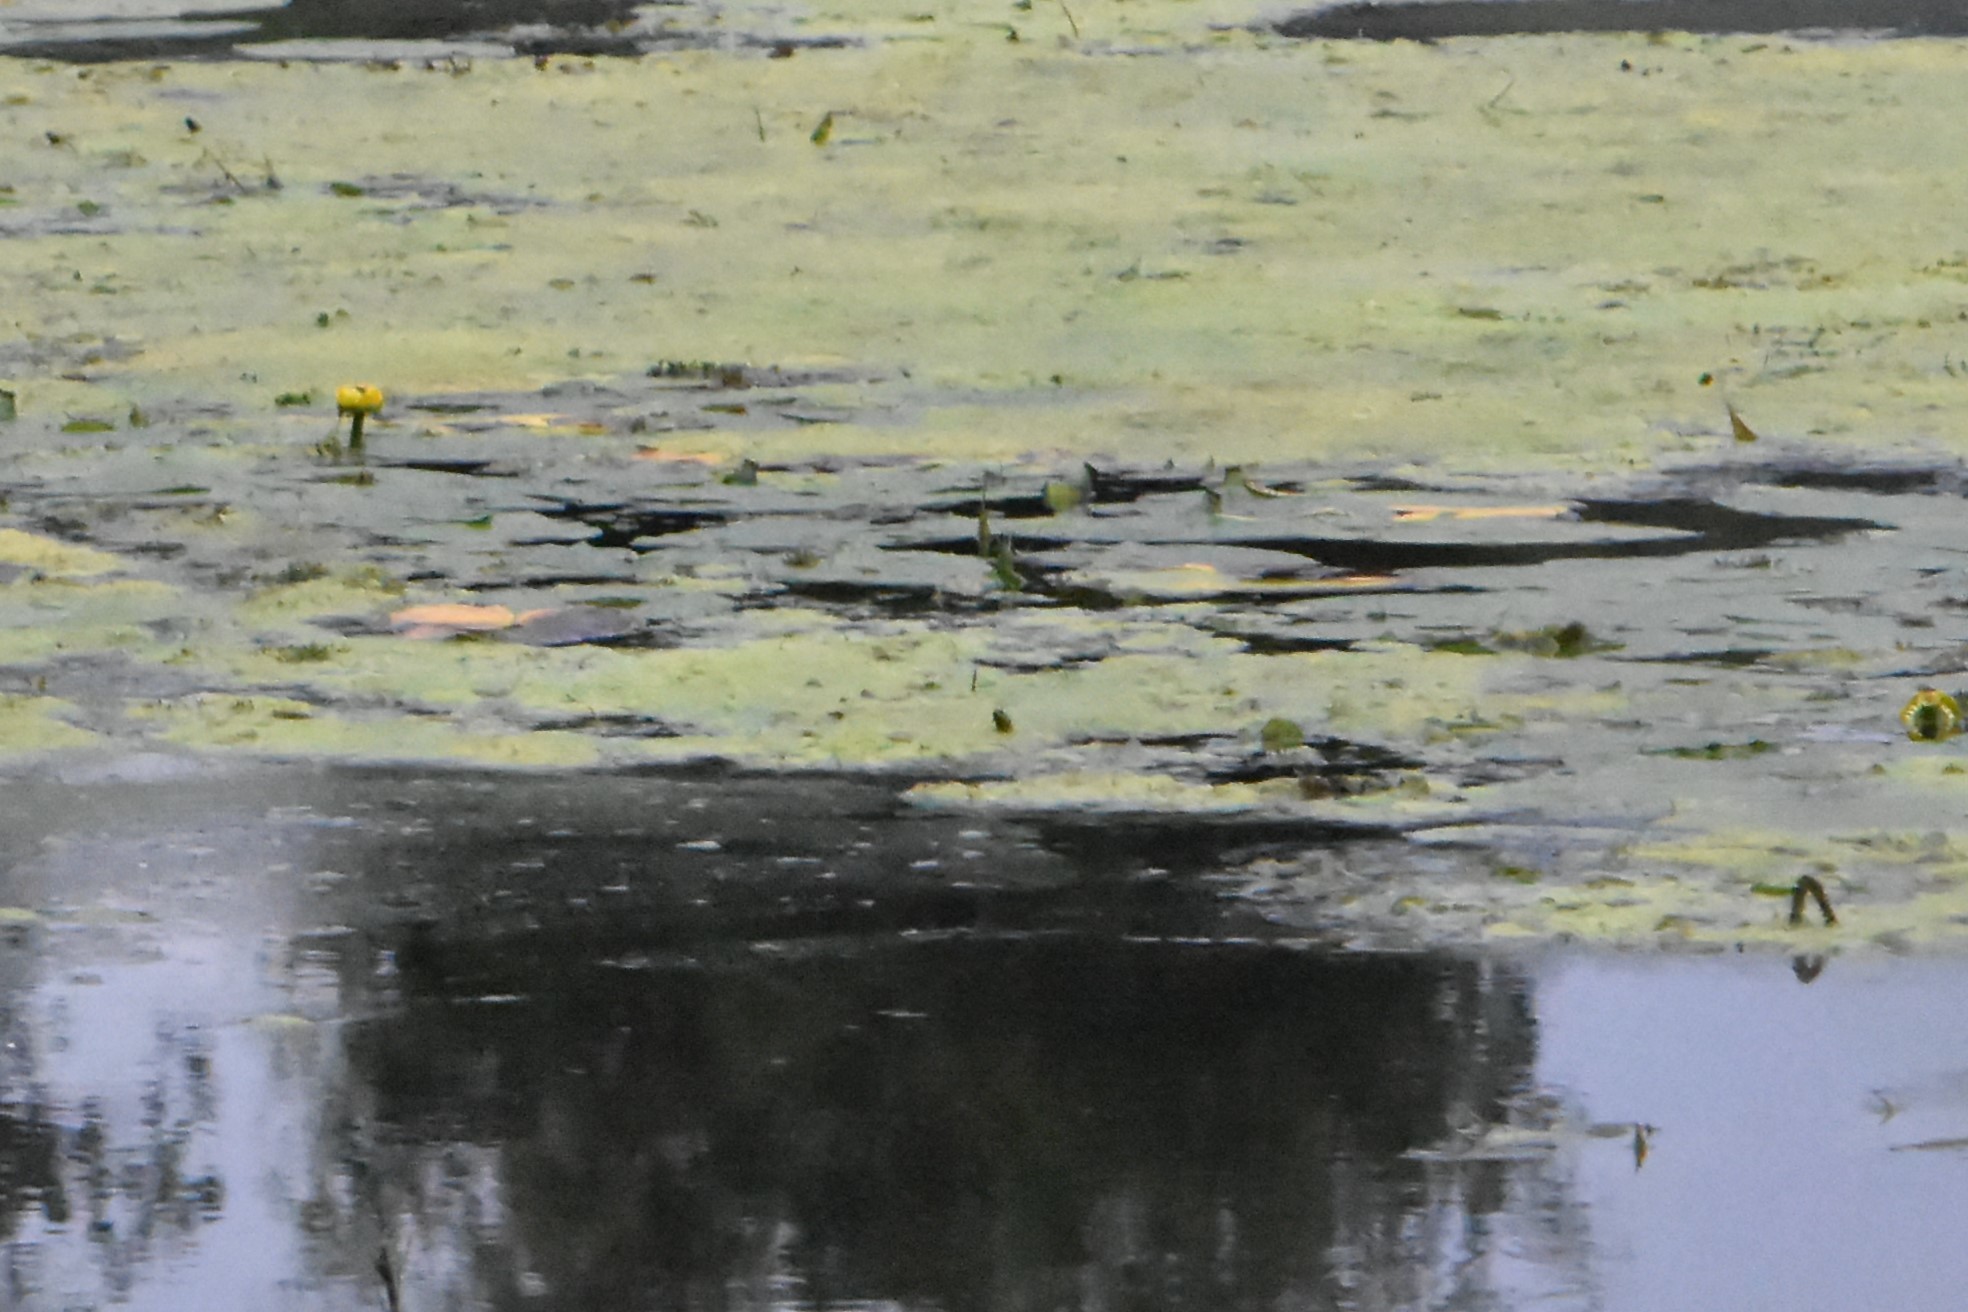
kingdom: Plantae
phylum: Tracheophyta
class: Magnoliopsida
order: Nymphaeales
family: Nymphaeaceae
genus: Nuphar
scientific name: Nuphar lutea
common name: Yellow water-lily
